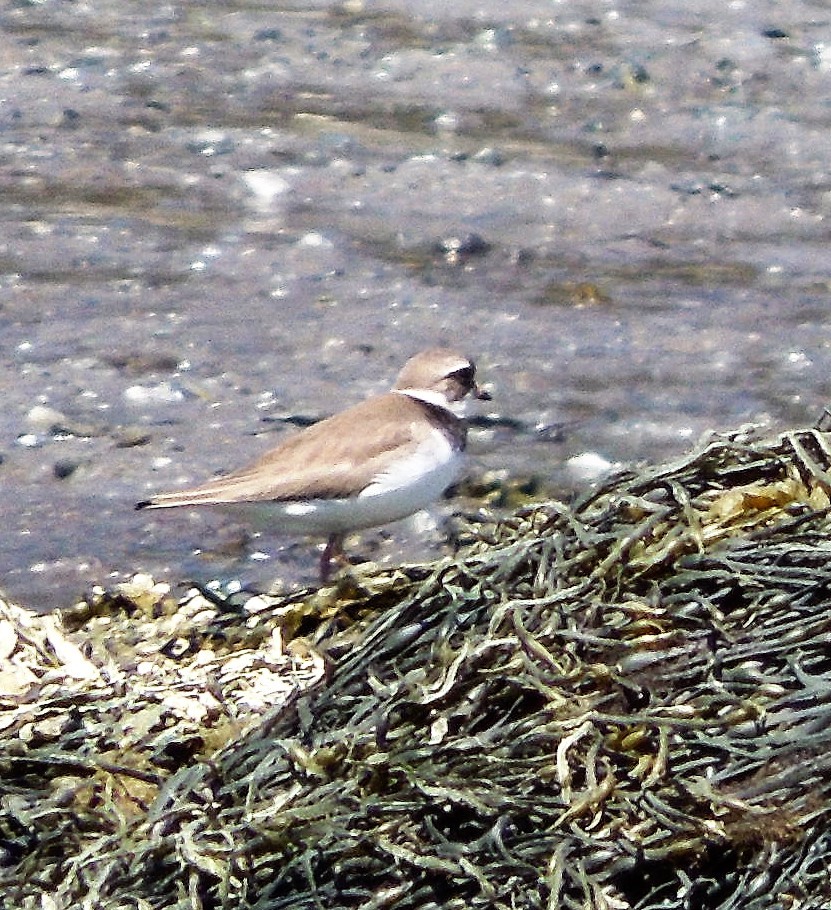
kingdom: Animalia
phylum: Chordata
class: Aves
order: Charadriiformes
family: Charadriidae
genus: Charadrius
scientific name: Charadrius semipalmatus
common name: Semipalmated plover
